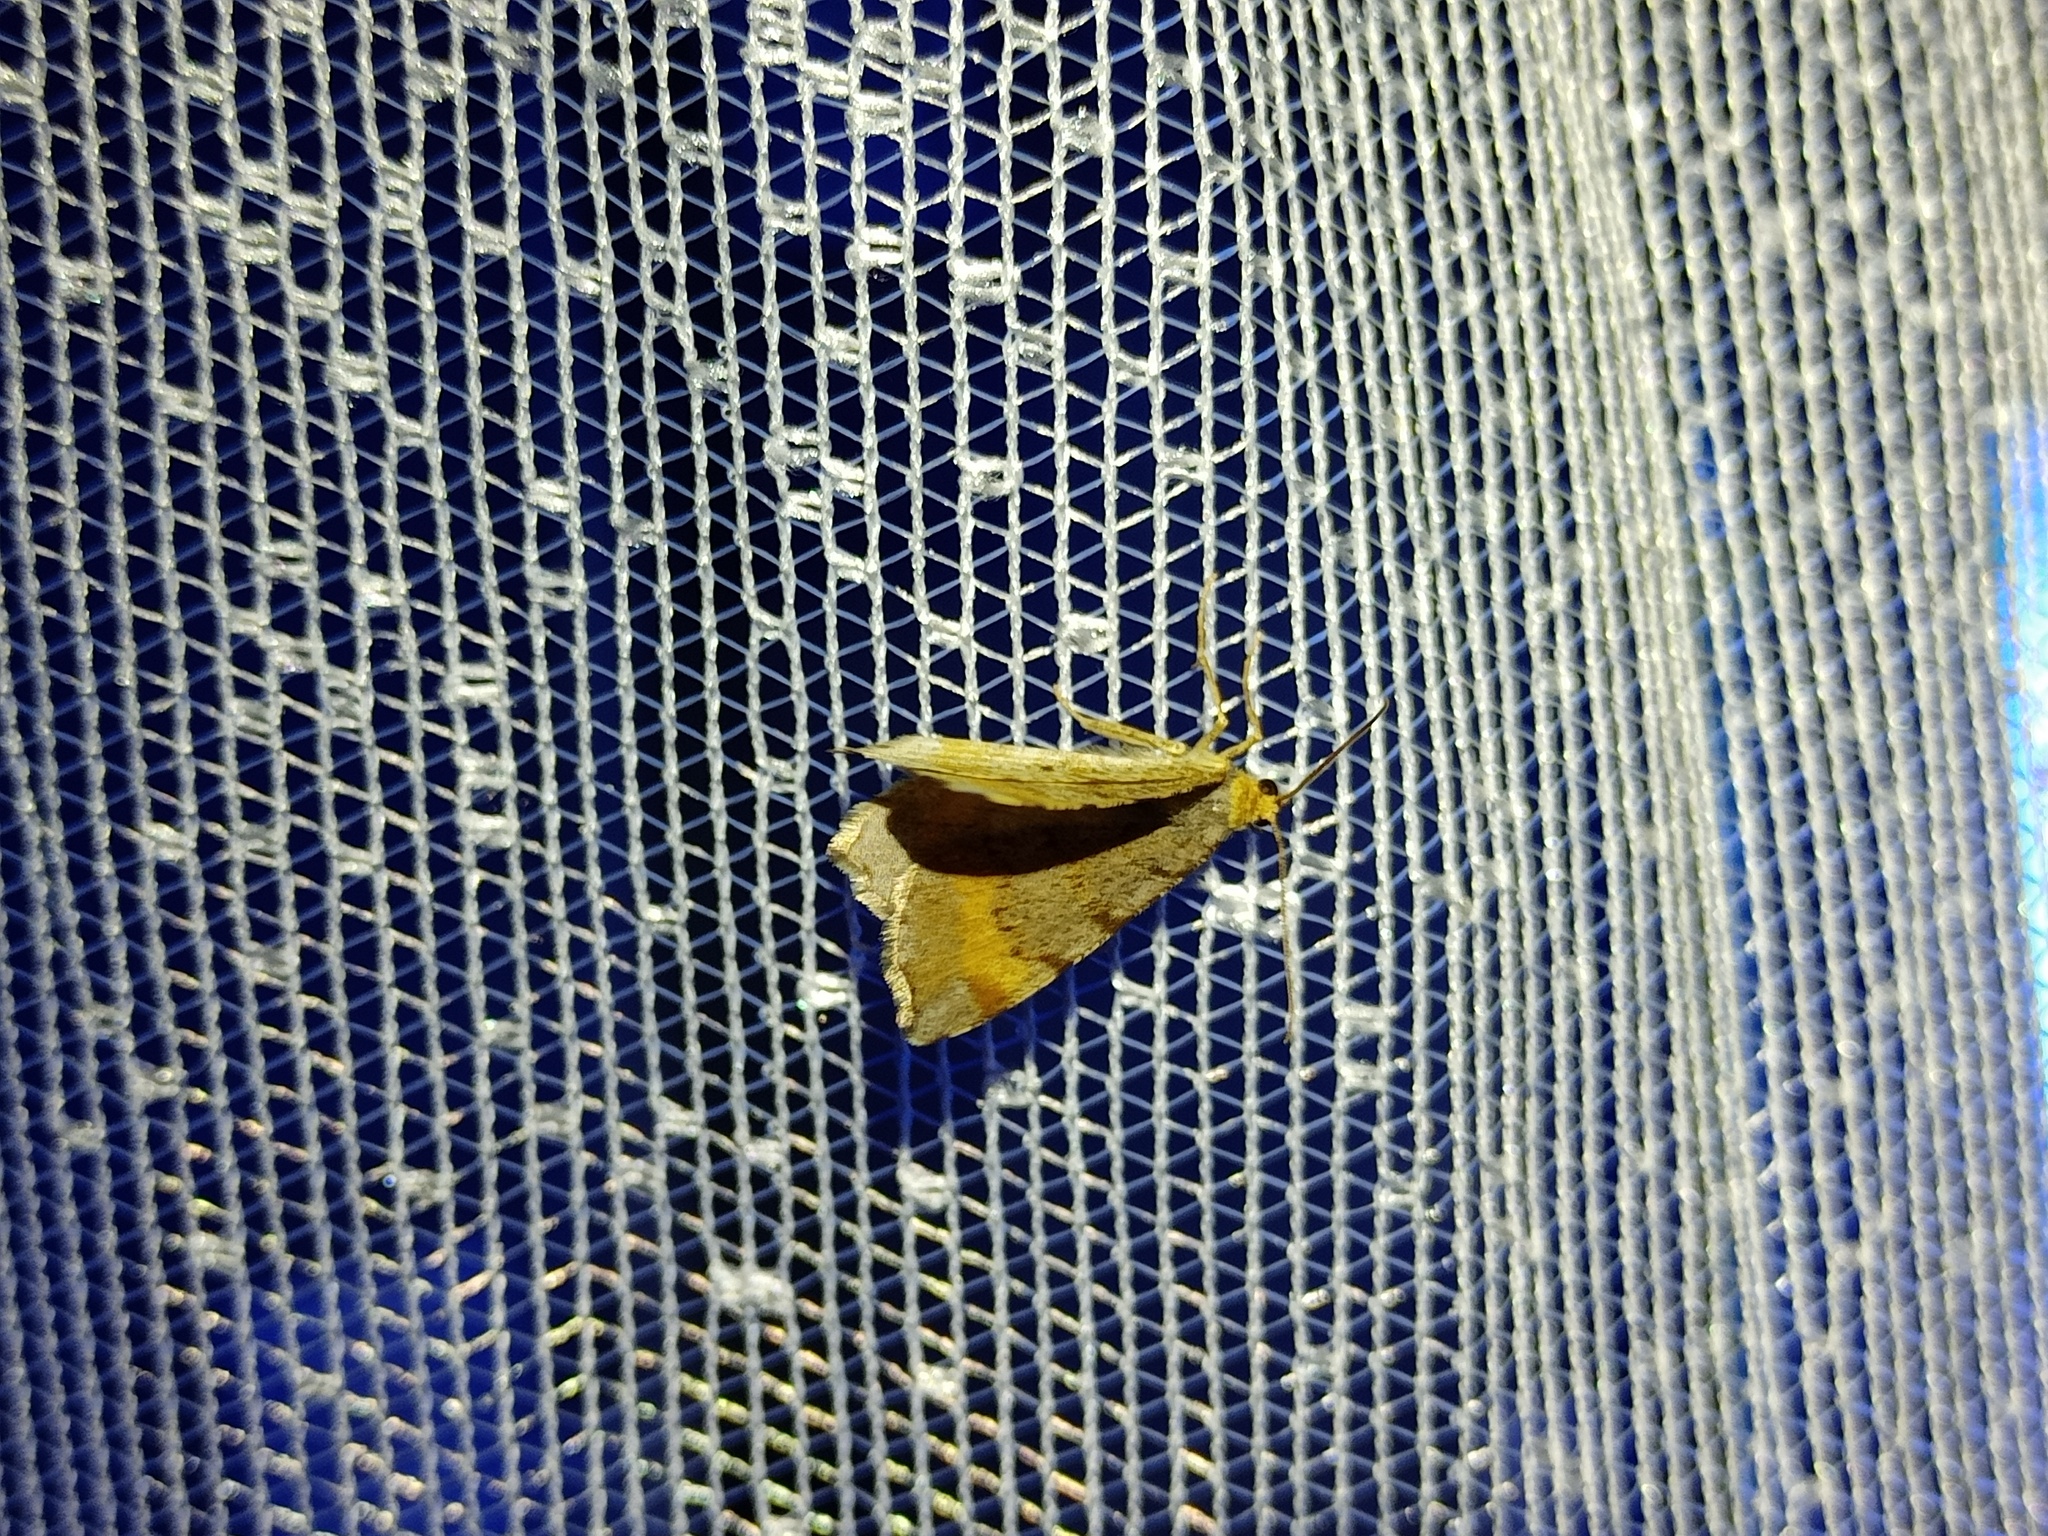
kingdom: Animalia
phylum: Arthropoda
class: Insecta
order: Lepidoptera
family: Geometridae
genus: Macaria
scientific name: Macaria liturata
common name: Tawny-barred angle
